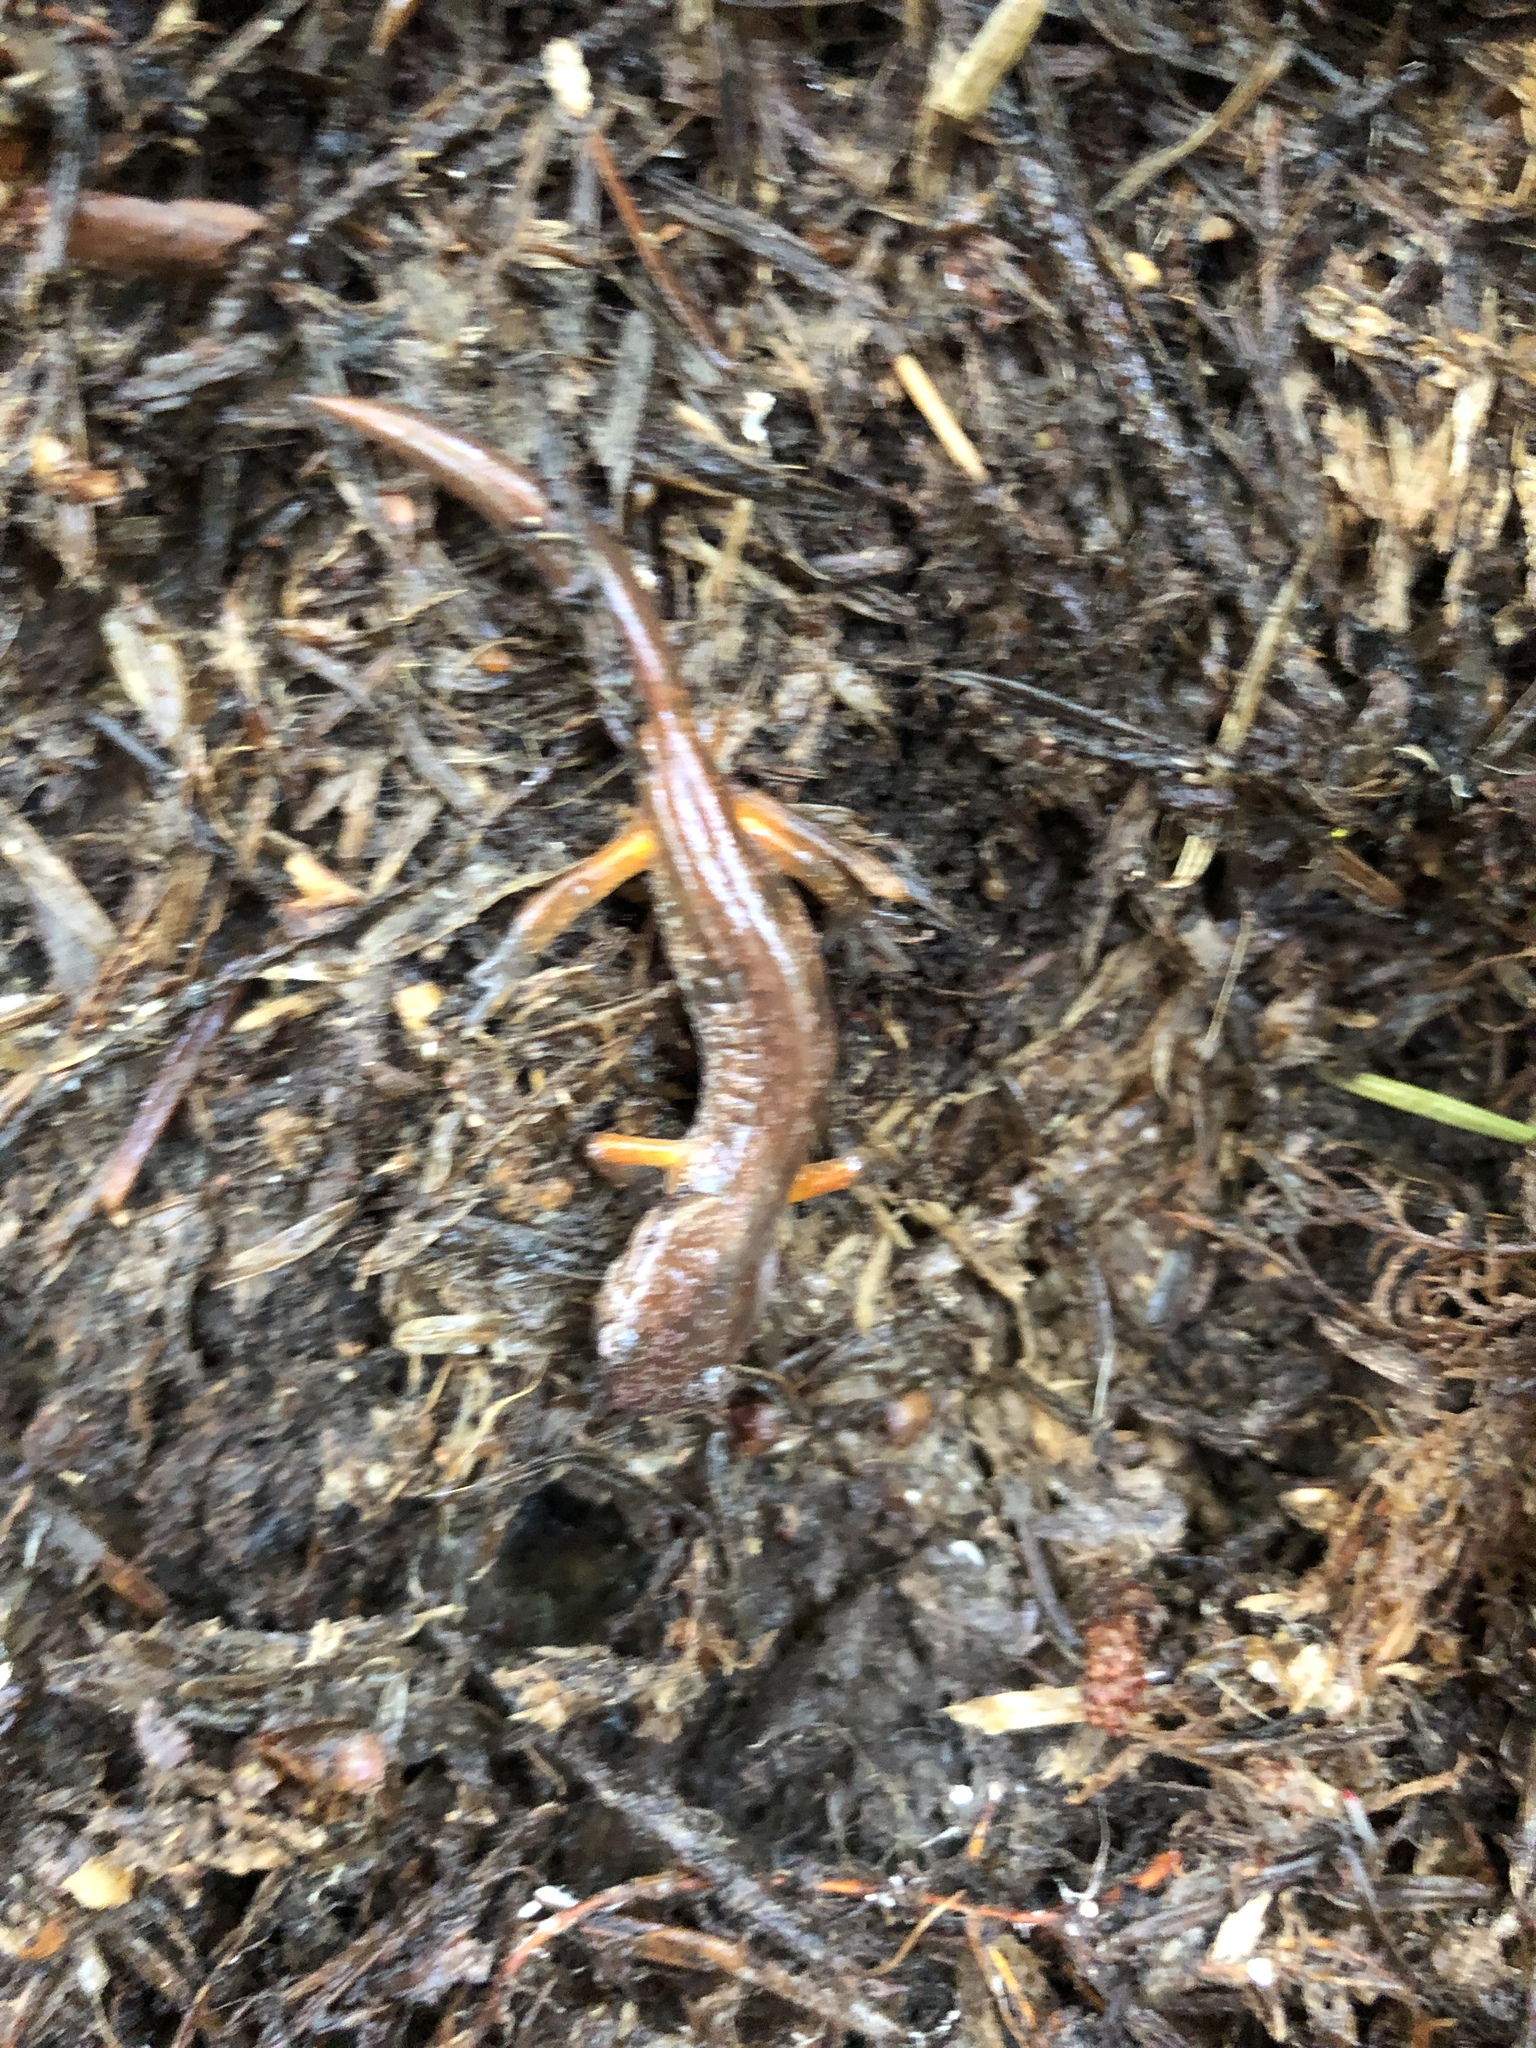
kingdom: Animalia
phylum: Chordata
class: Amphibia
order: Caudata
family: Plethodontidae
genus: Ensatina
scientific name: Ensatina eschscholtzii
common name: Ensatina
